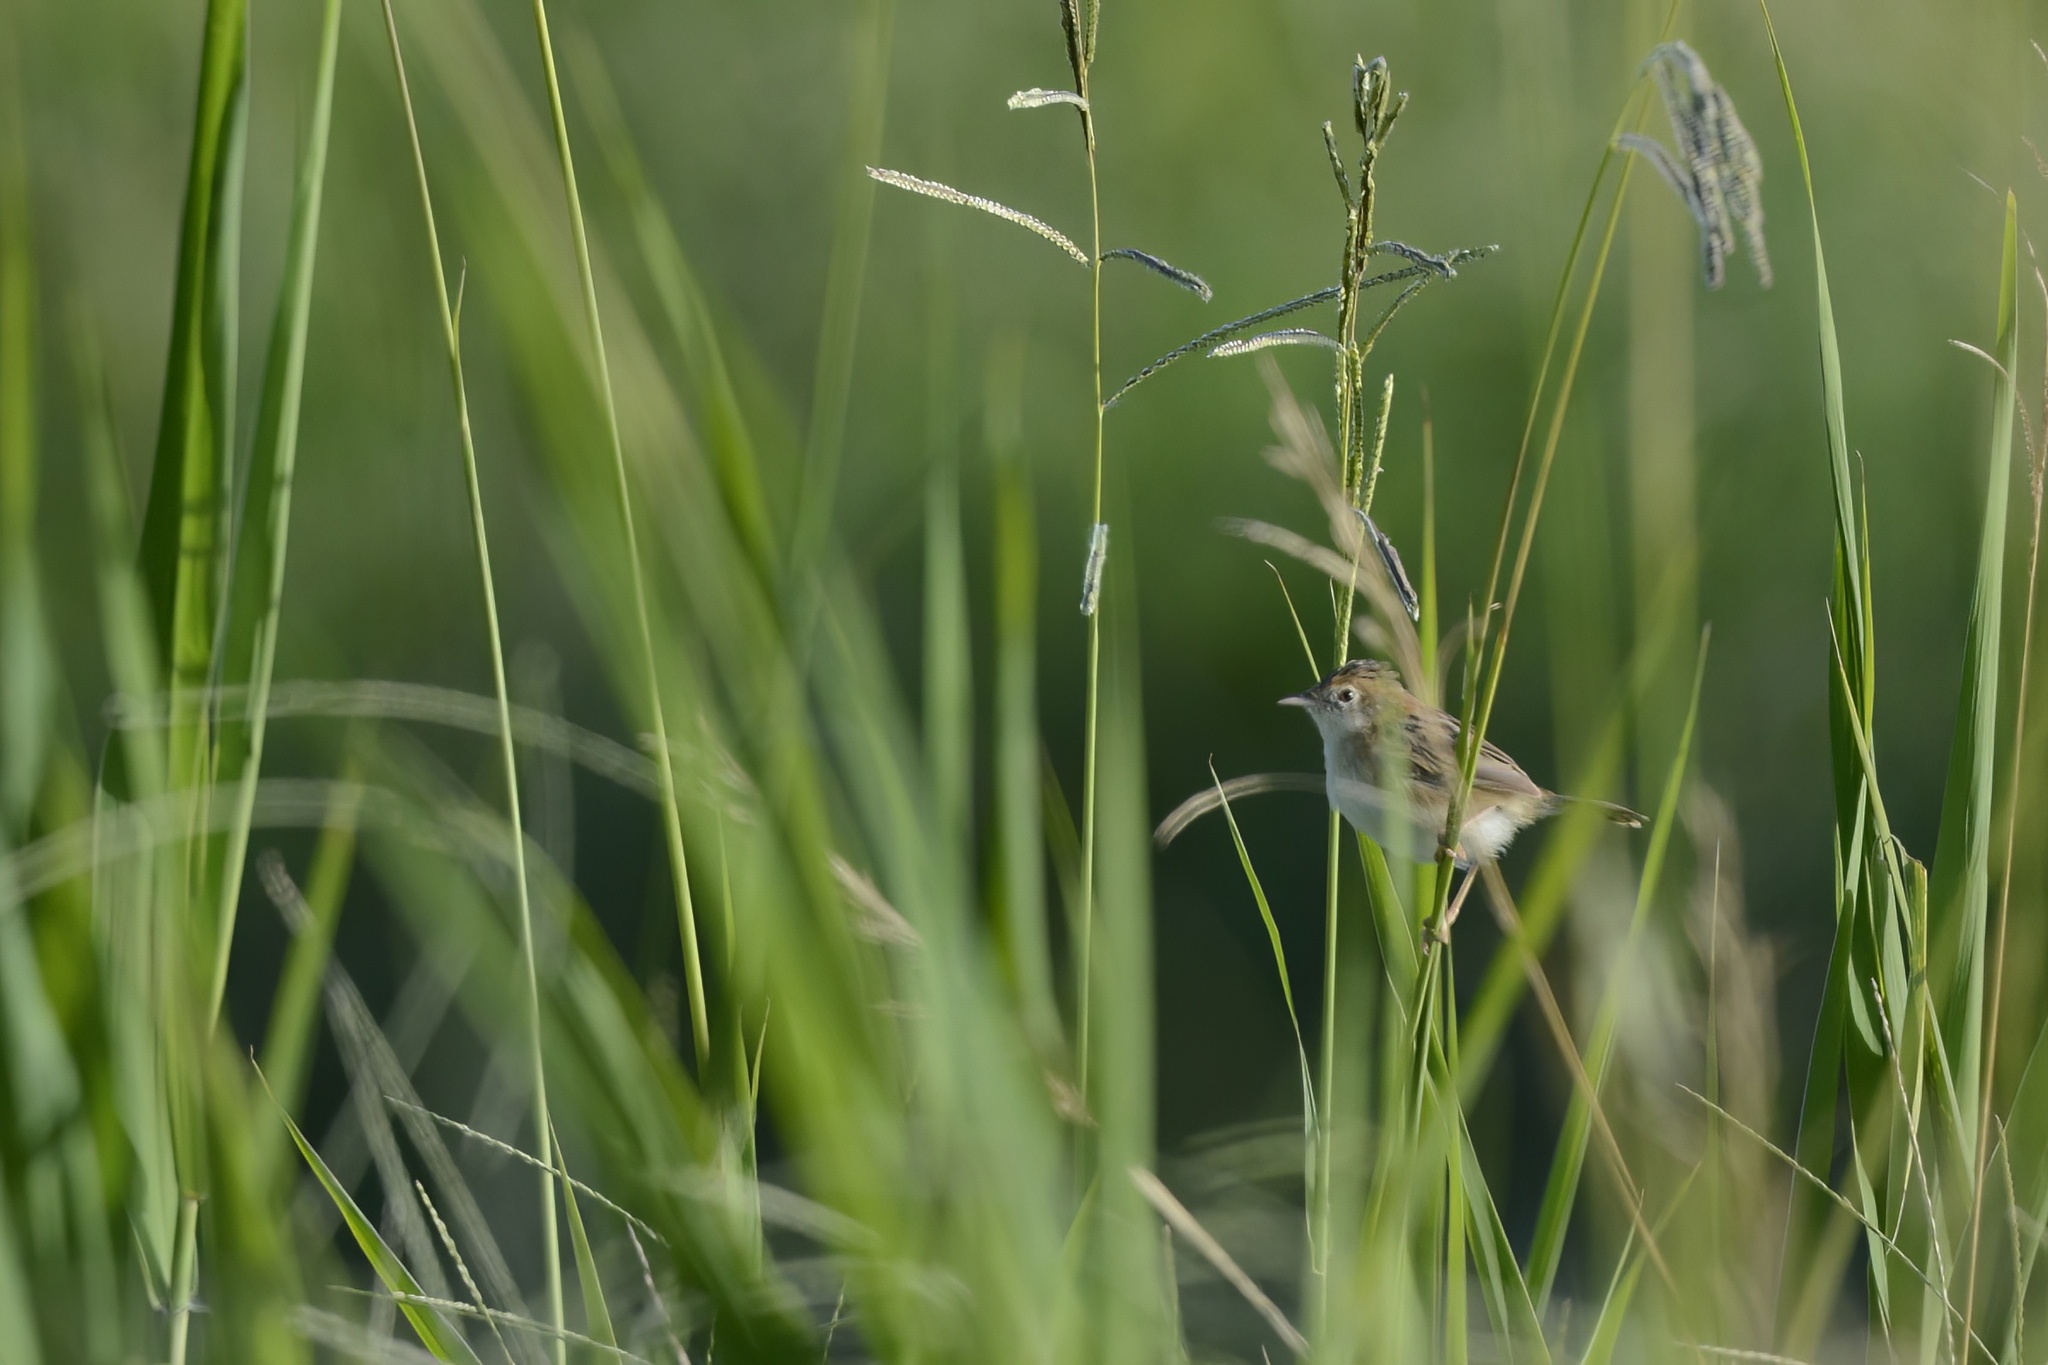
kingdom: Animalia
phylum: Chordata
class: Aves
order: Passeriformes
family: Cisticolidae
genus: Cisticola
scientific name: Cisticola exilis
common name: Golden-headed cisticola
